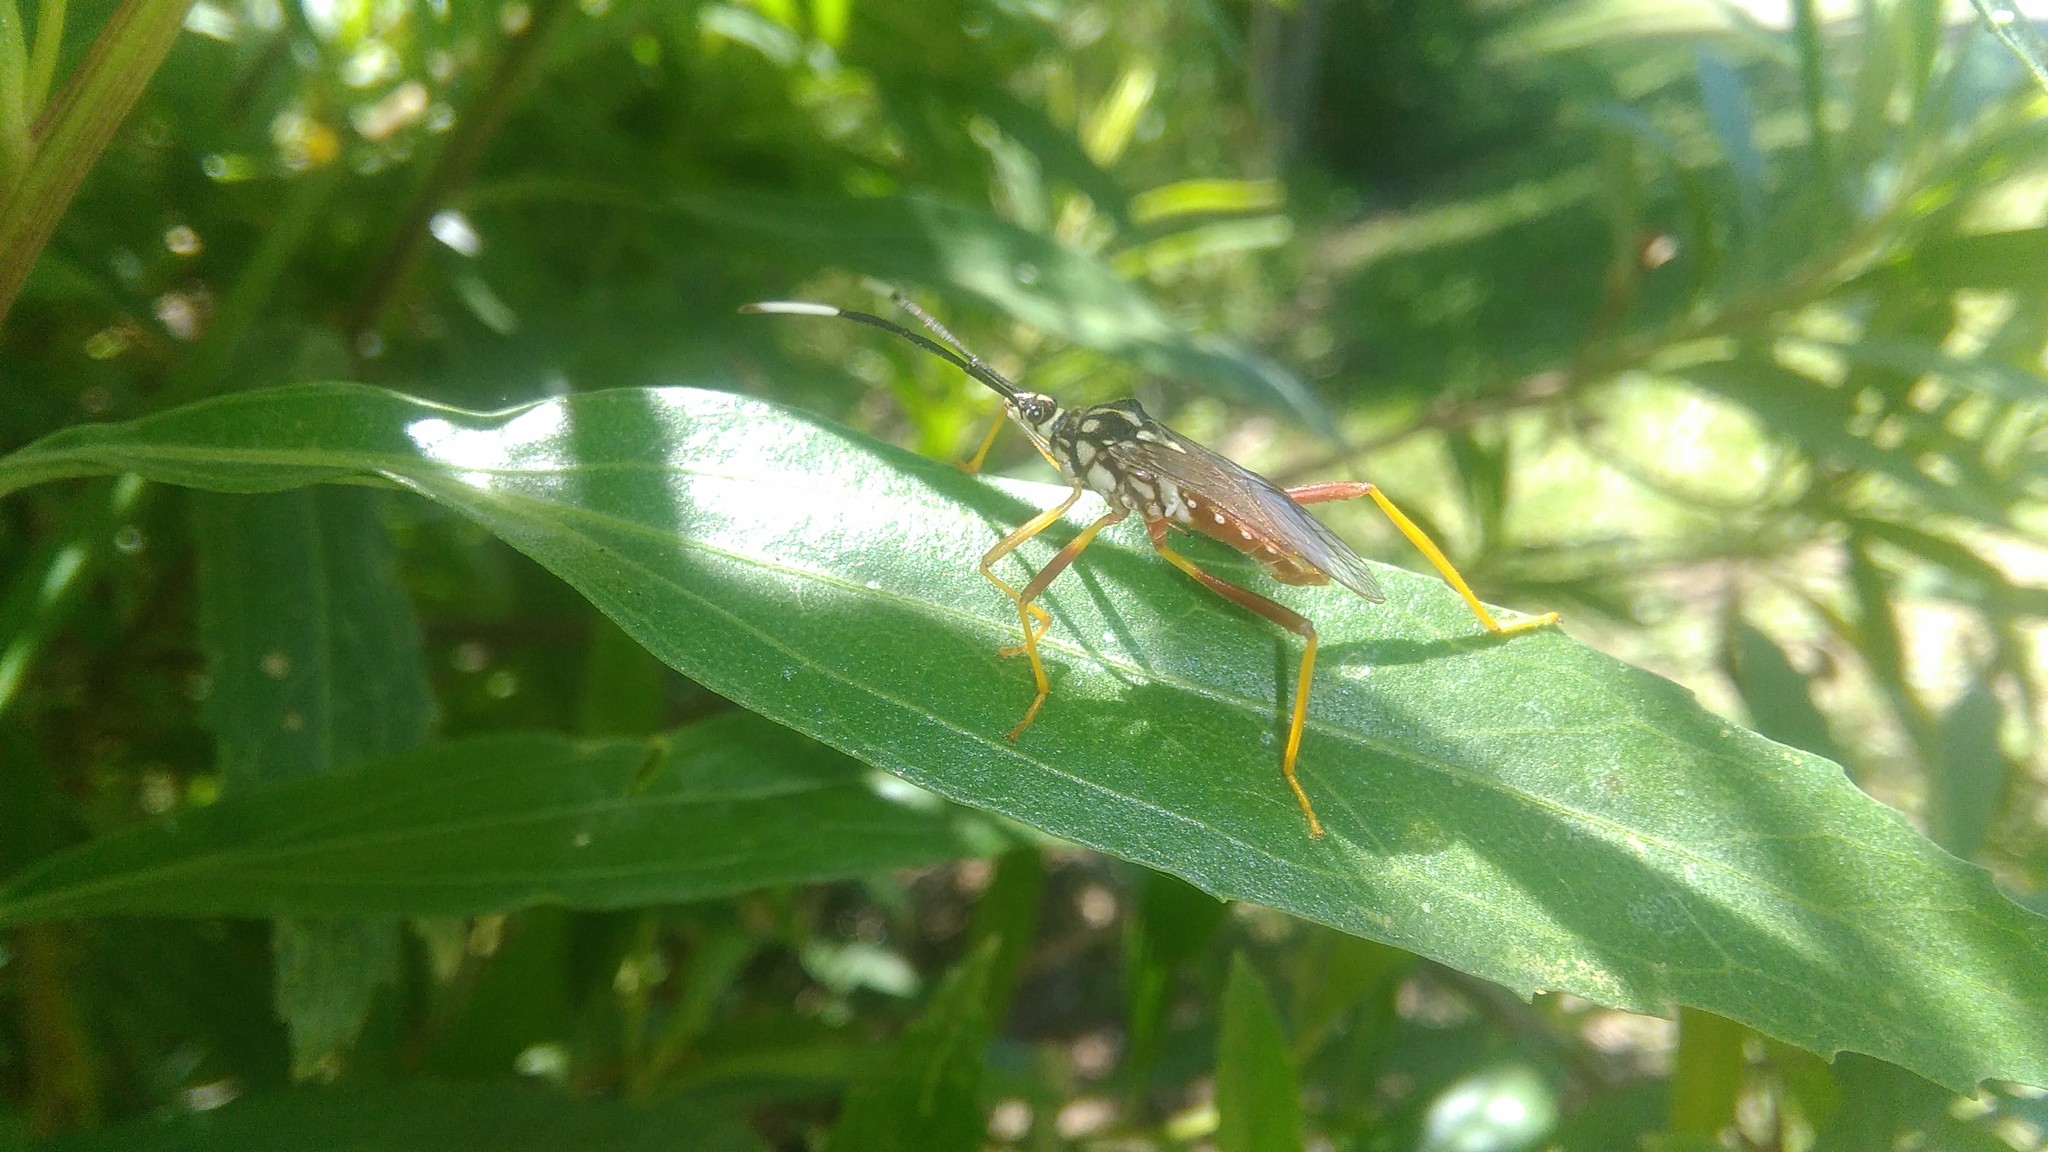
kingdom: Animalia
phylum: Arthropoda
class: Insecta
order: Hemiptera
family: Coreidae
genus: Holhymenia
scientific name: Holhymenia histrio
